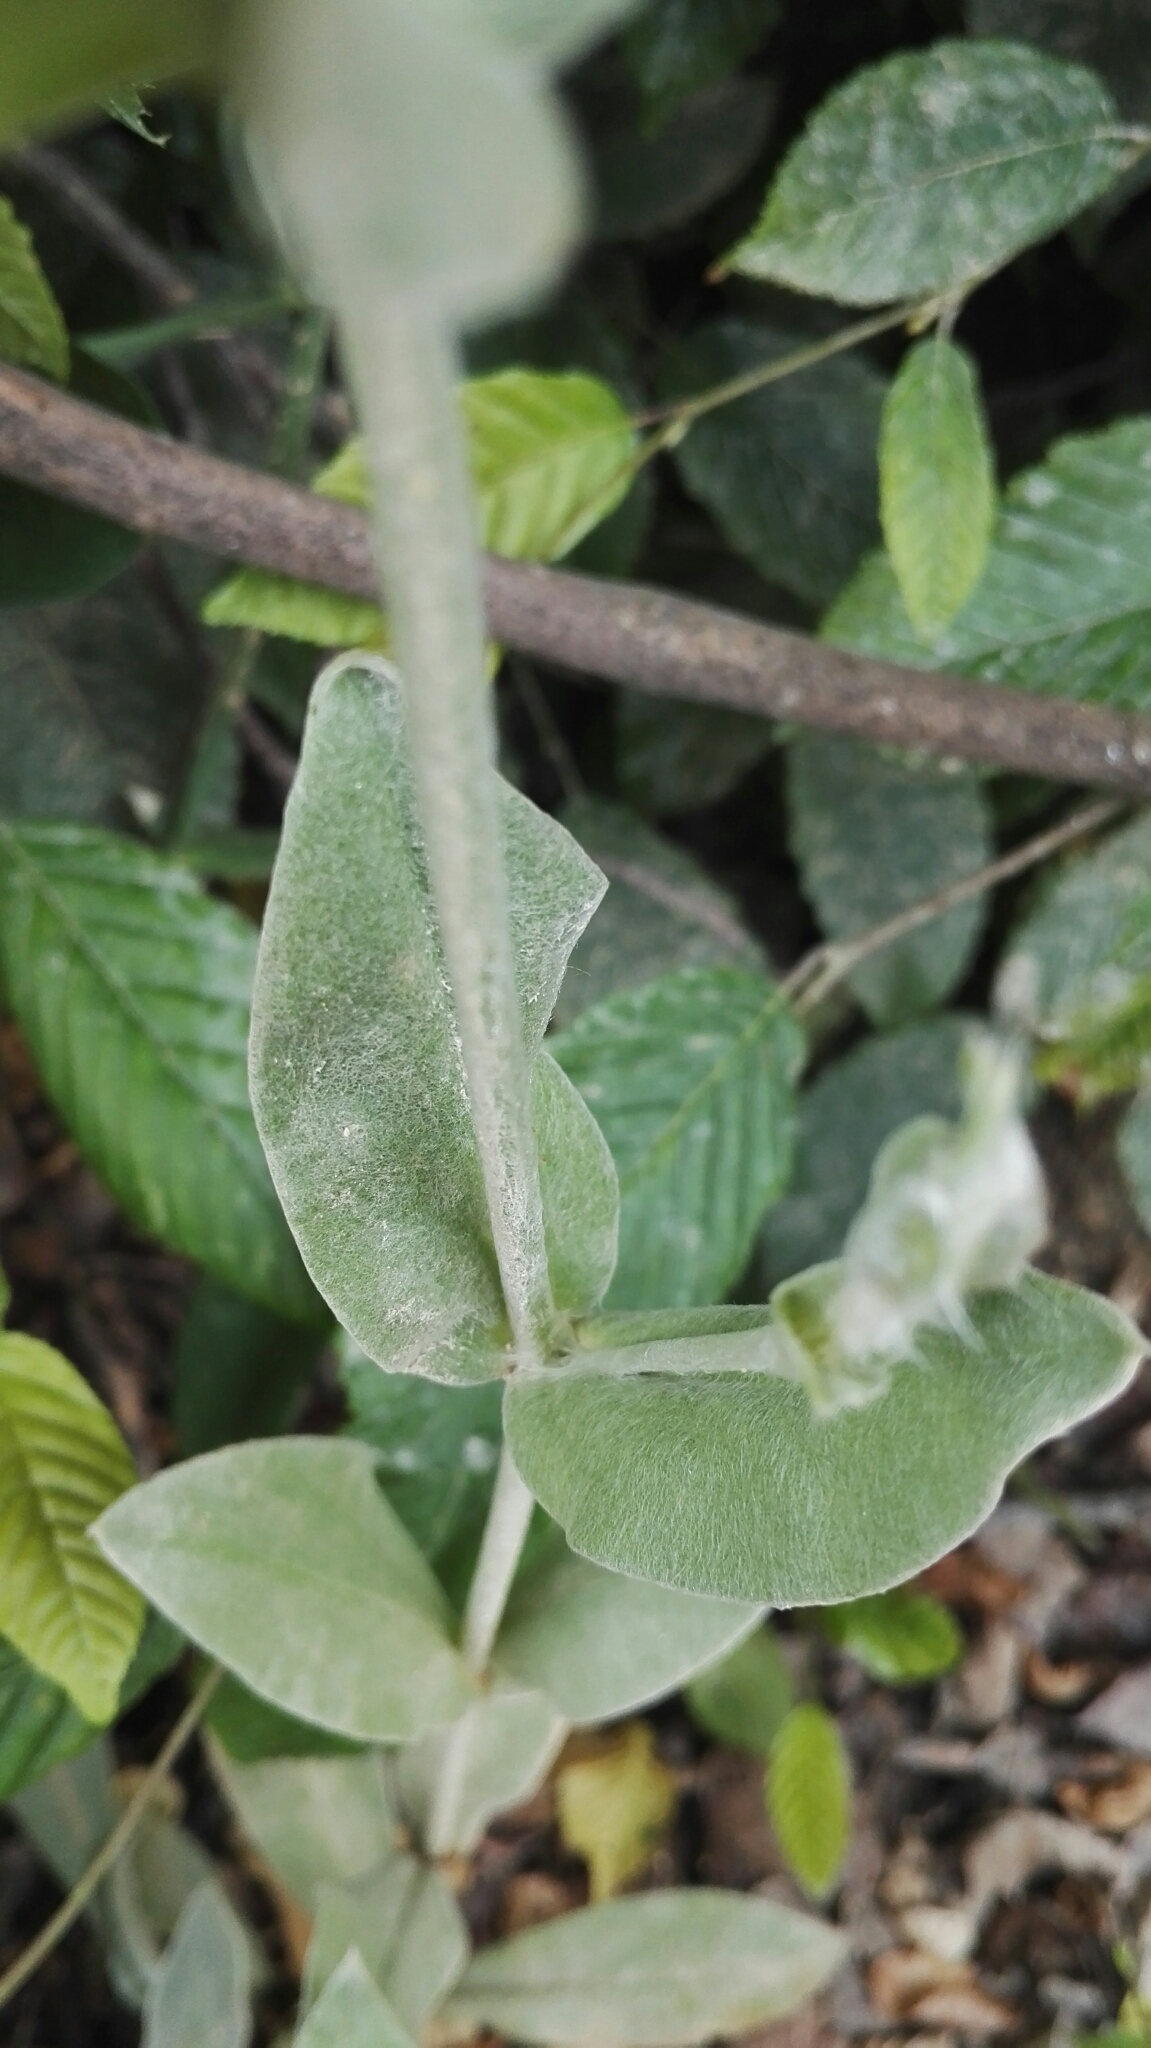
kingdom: Plantae
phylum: Tracheophyta
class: Magnoliopsida
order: Caryophyllales
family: Caryophyllaceae
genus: Silene
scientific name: Silene coronaria
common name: Rose campion
